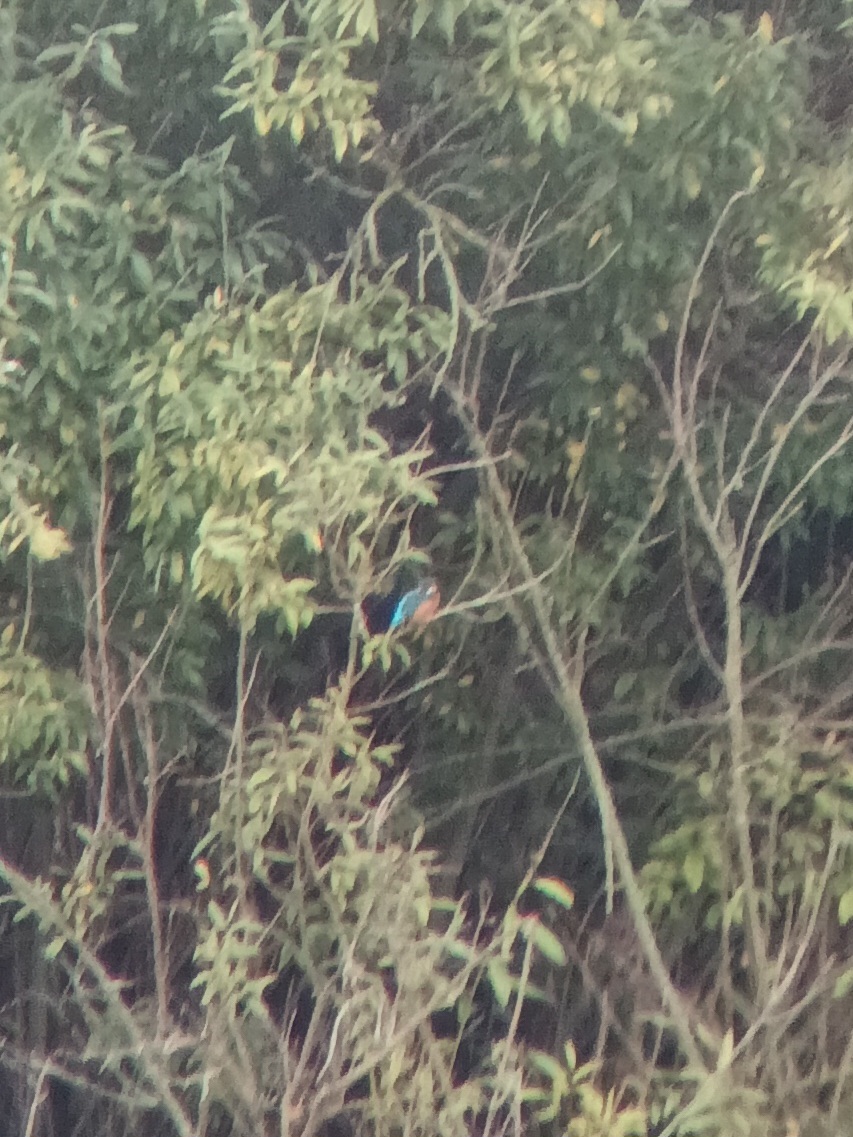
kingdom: Animalia
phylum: Chordata
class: Aves
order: Coraciiformes
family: Alcedinidae
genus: Alcedo
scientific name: Alcedo atthis
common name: Common kingfisher
